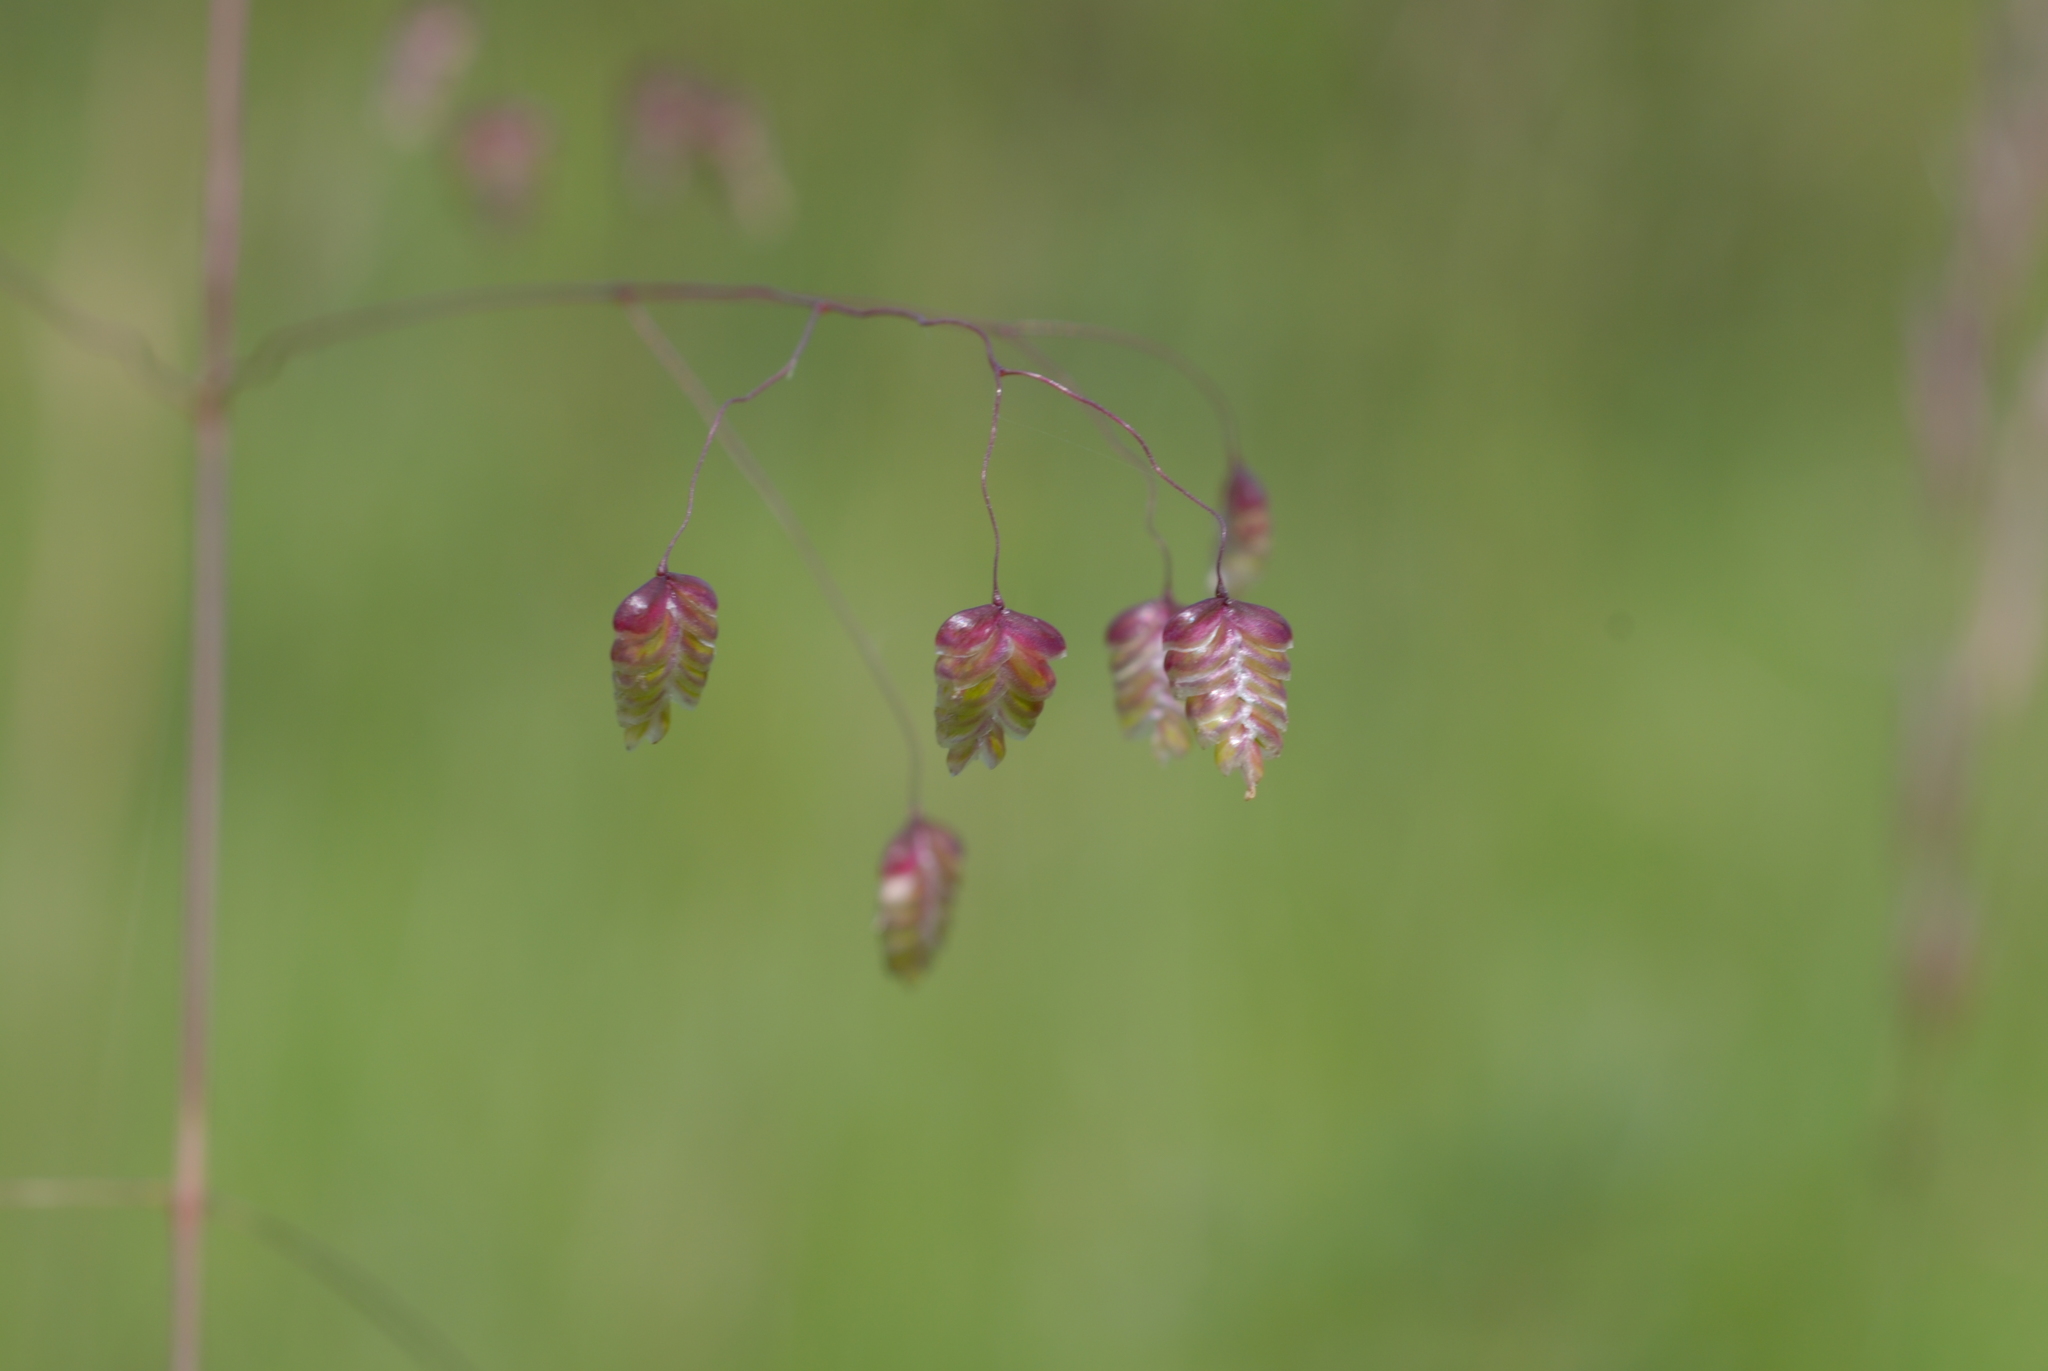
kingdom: Plantae
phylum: Tracheophyta
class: Liliopsida
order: Poales
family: Poaceae
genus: Briza
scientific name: Briza media
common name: Quaking grass
